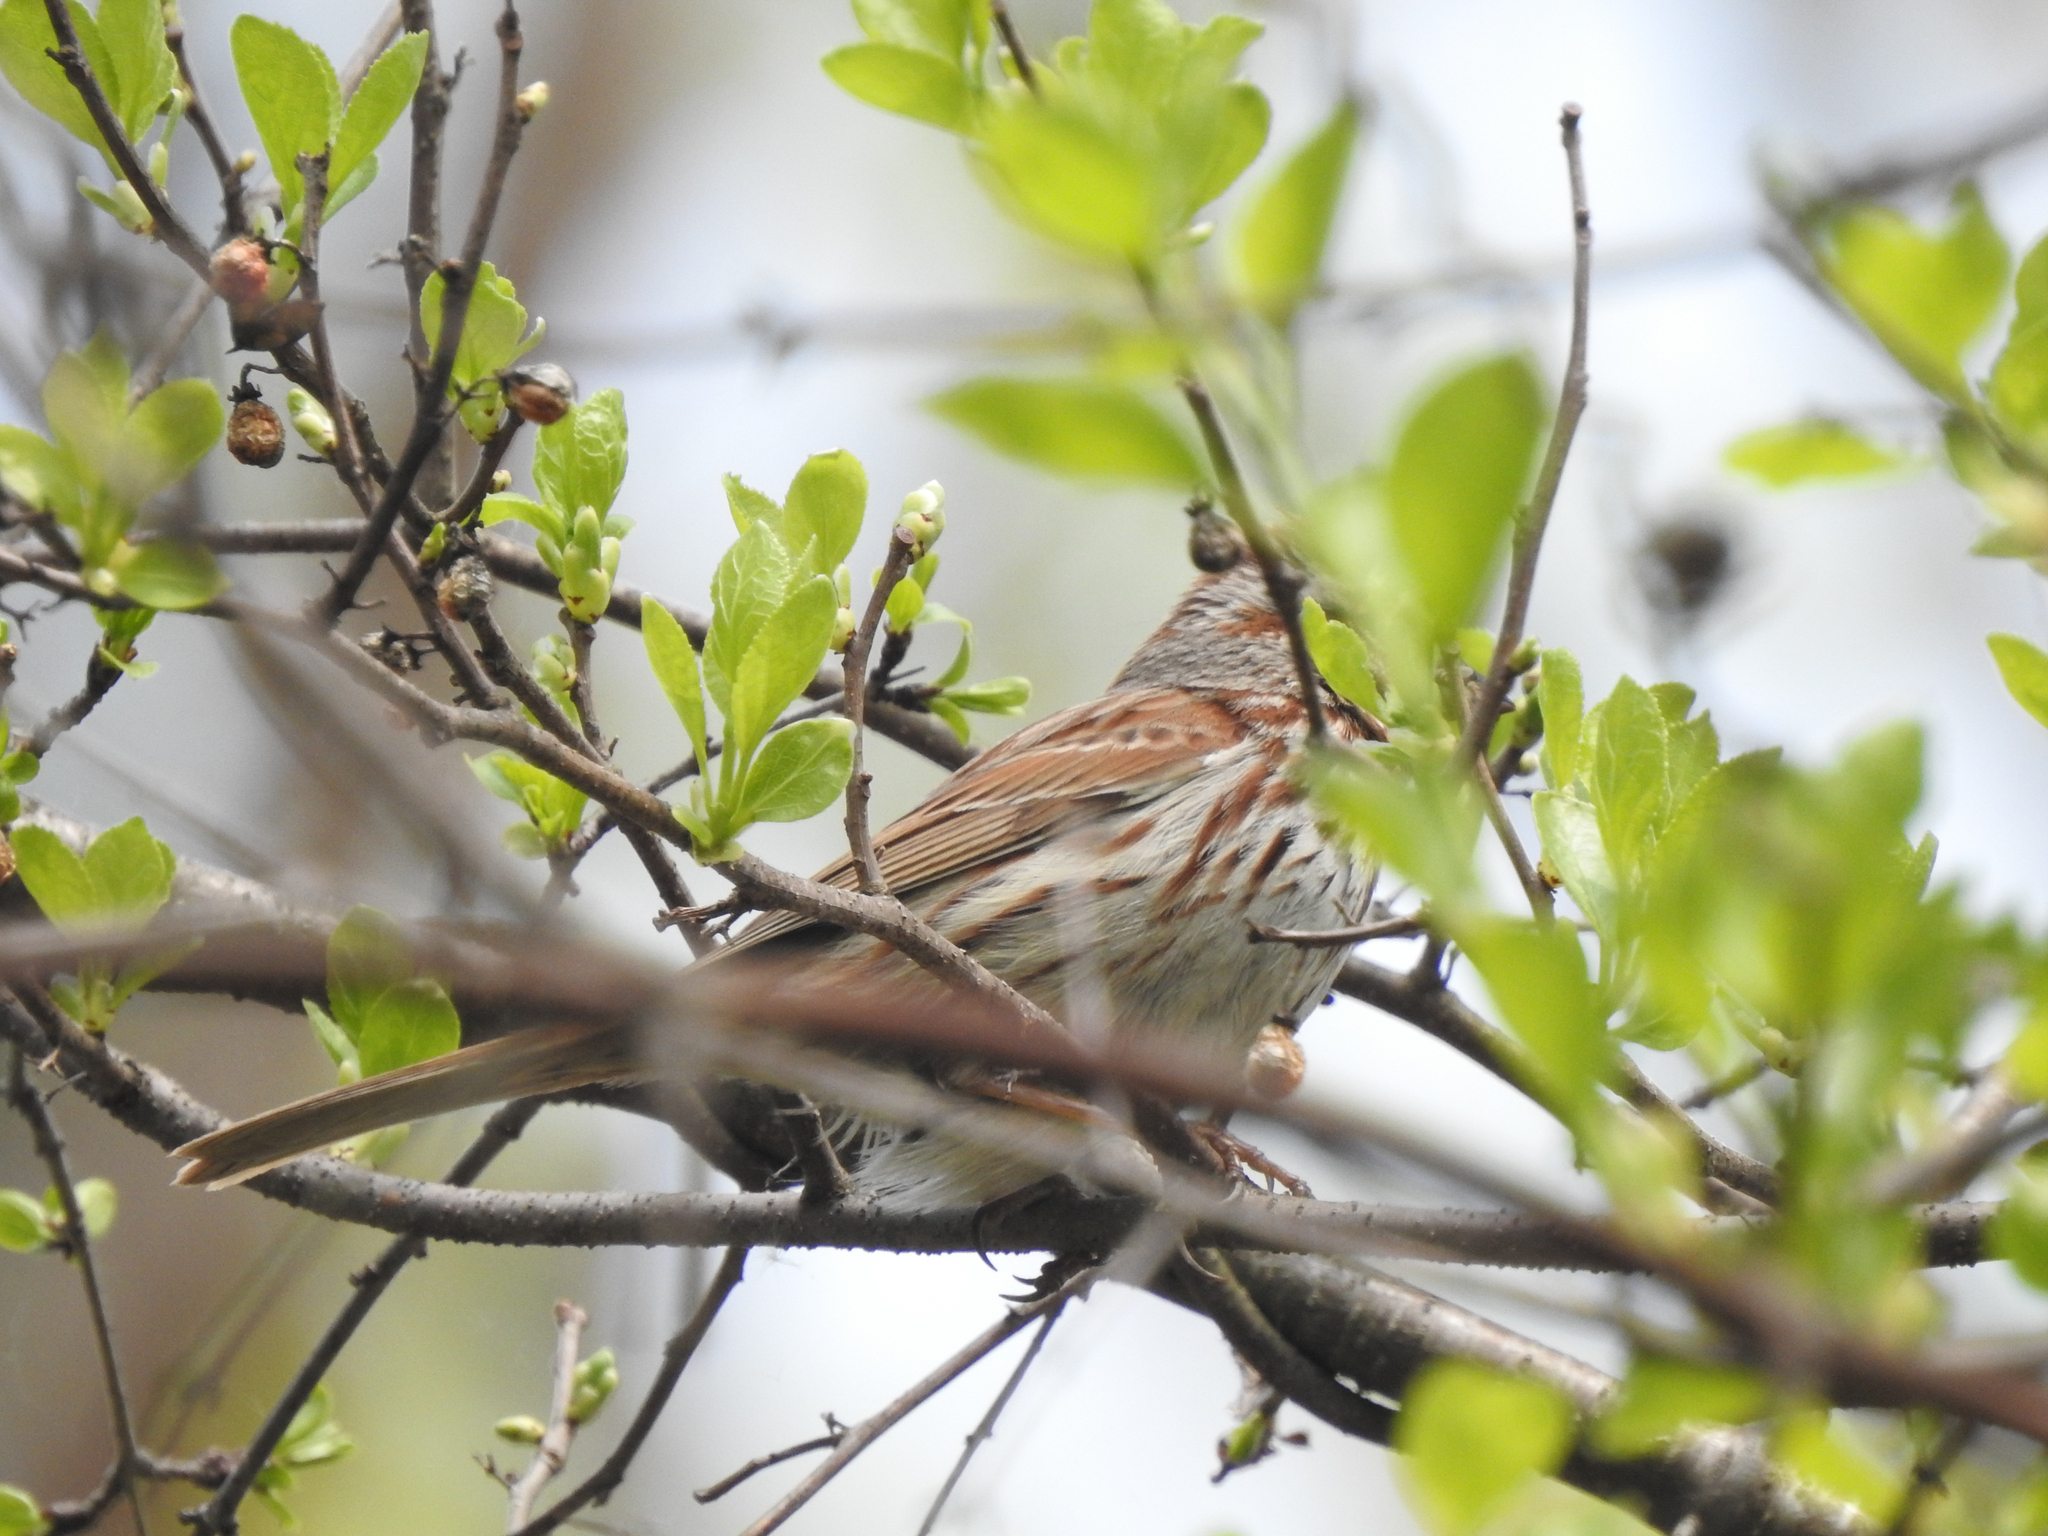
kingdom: Animalia
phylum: Chordata
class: Aves
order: Passeriformes
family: Passerellidae
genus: Melospiza
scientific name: Melospiza melodia
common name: Song sparrow
